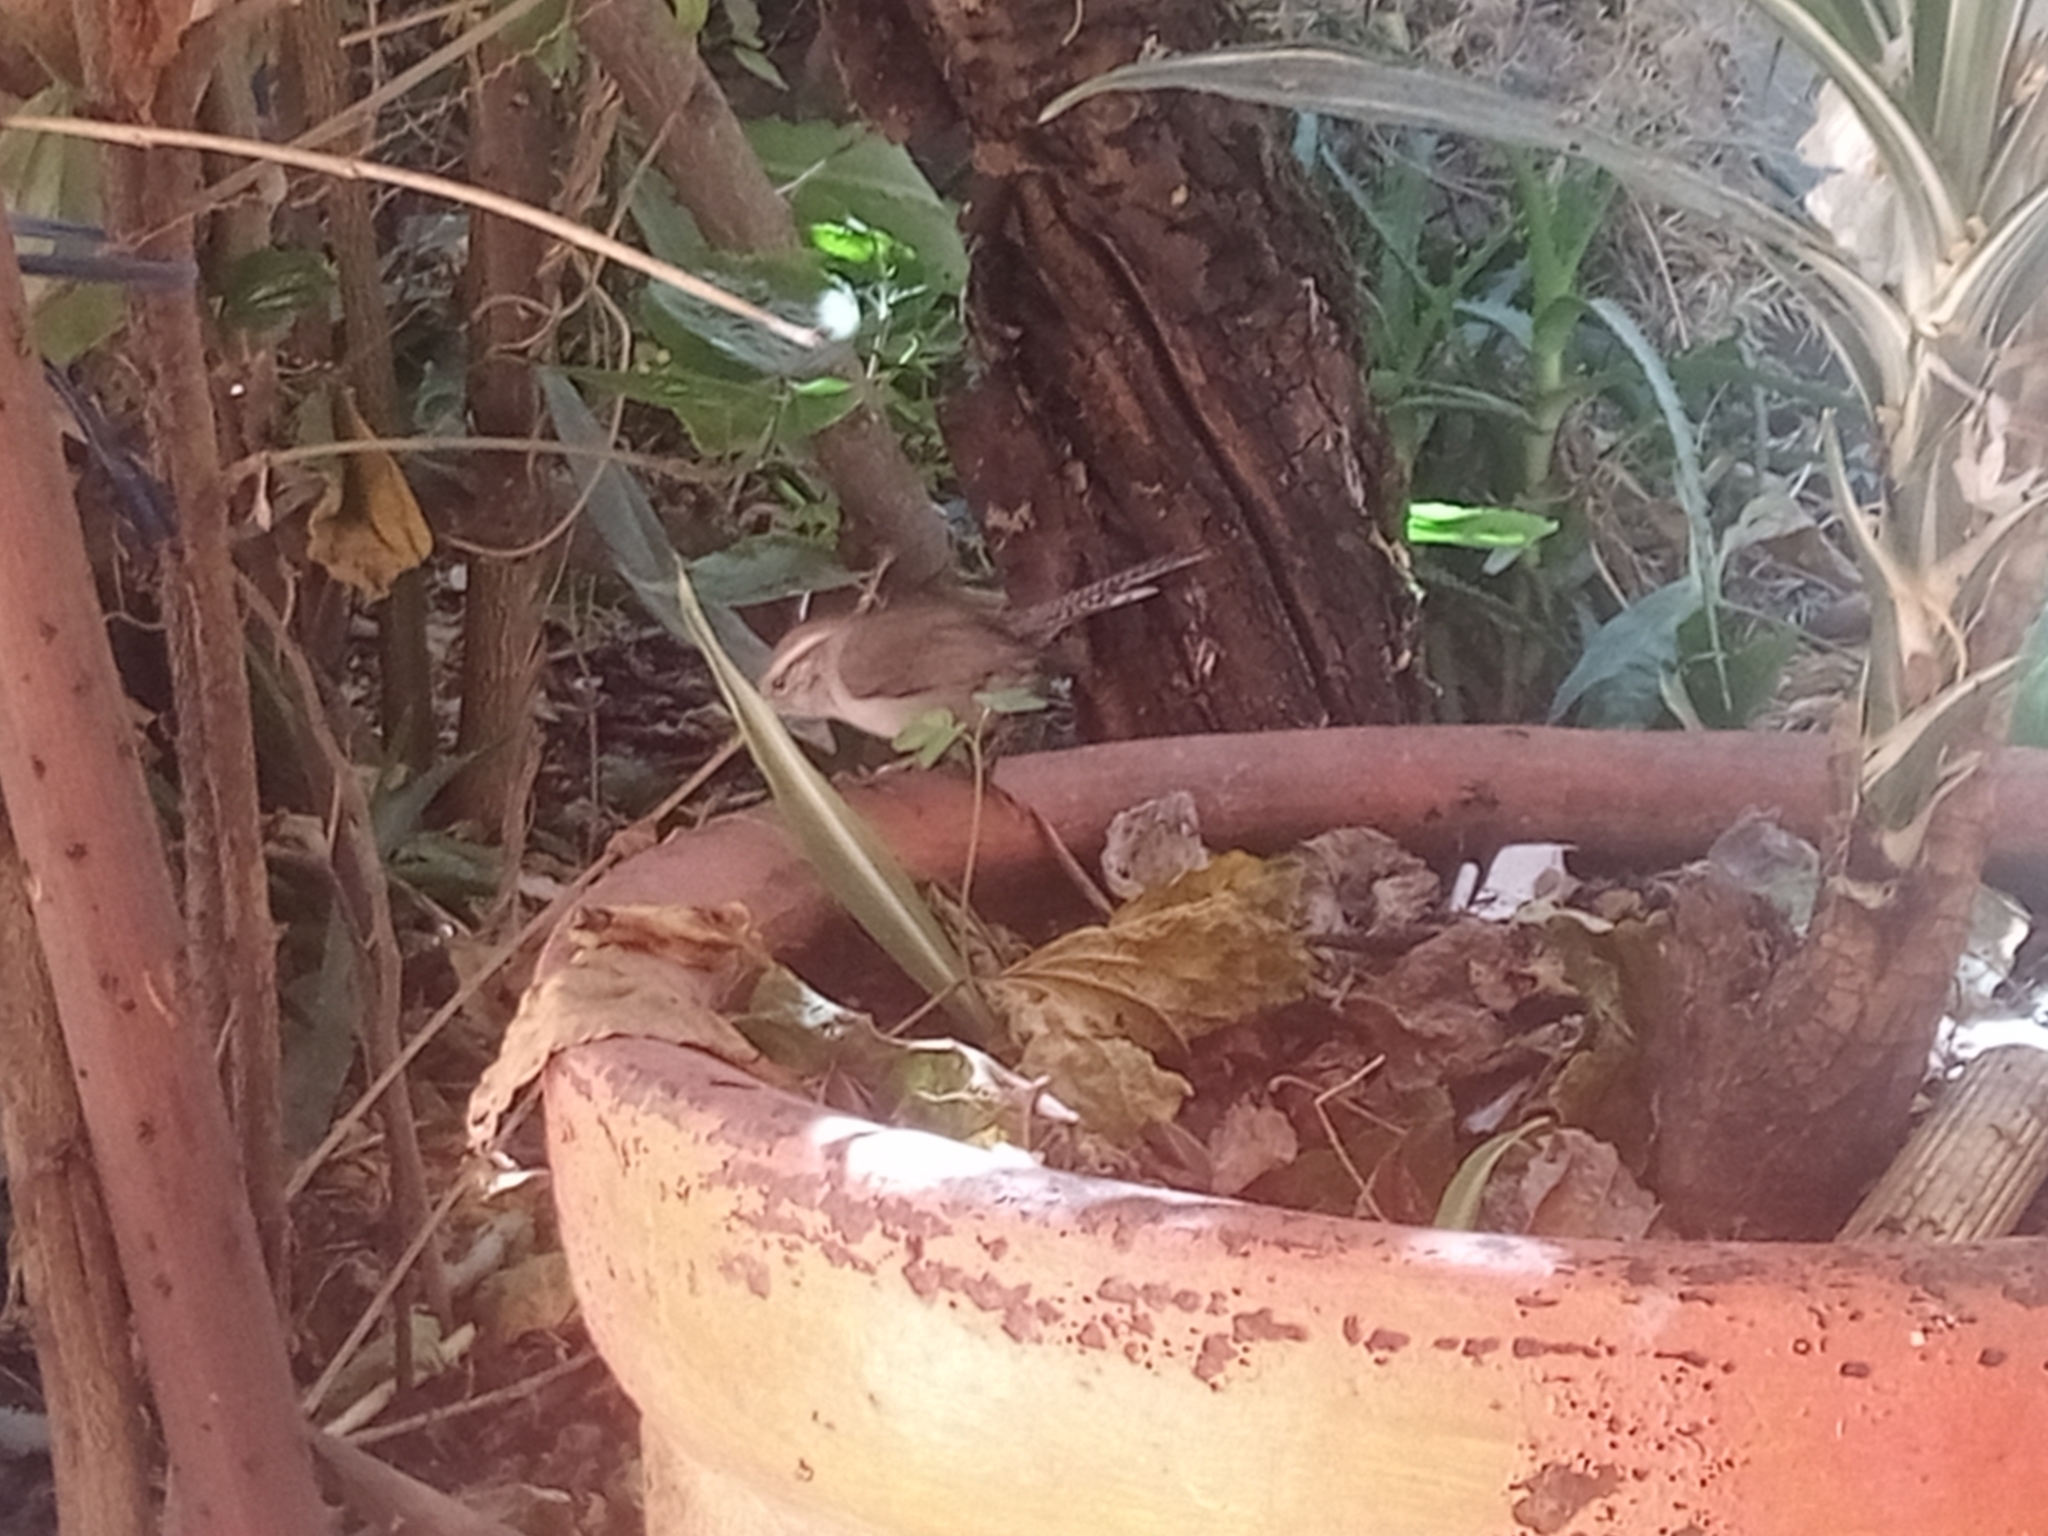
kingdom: Animalia
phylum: Chordata
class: Aves
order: Passeriformes
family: Troglodytidae
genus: Thryomanes
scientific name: Thryomanes bewickii
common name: Bewick's wren
